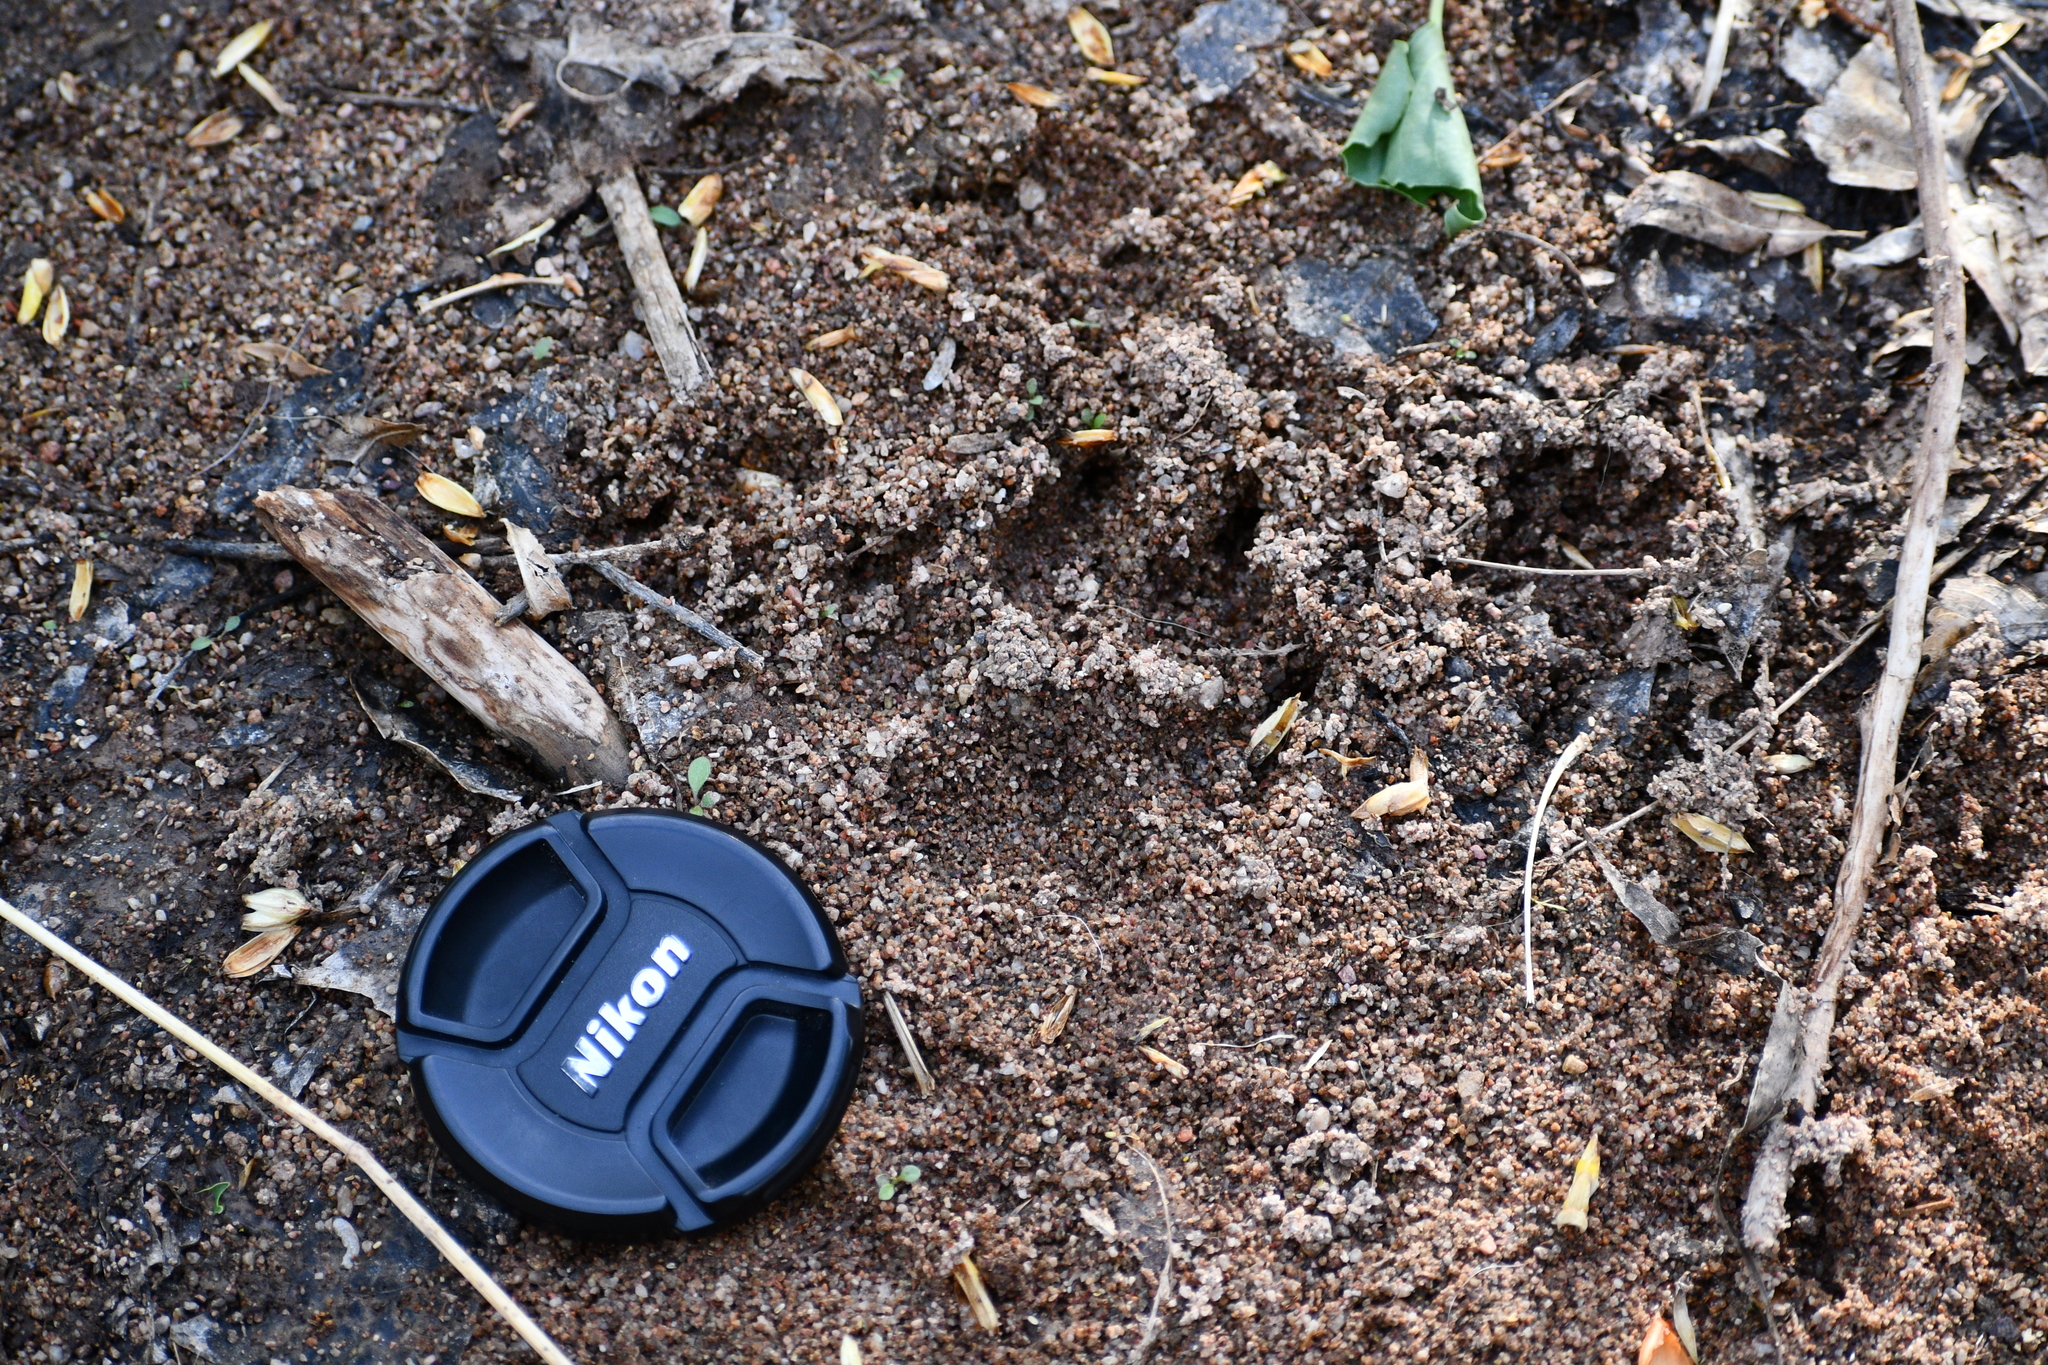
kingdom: Animalia
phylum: Chordata
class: Mammalia
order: Carnivora
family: Canidae
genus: Canis
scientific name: Canis lupus
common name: Gray wolf
